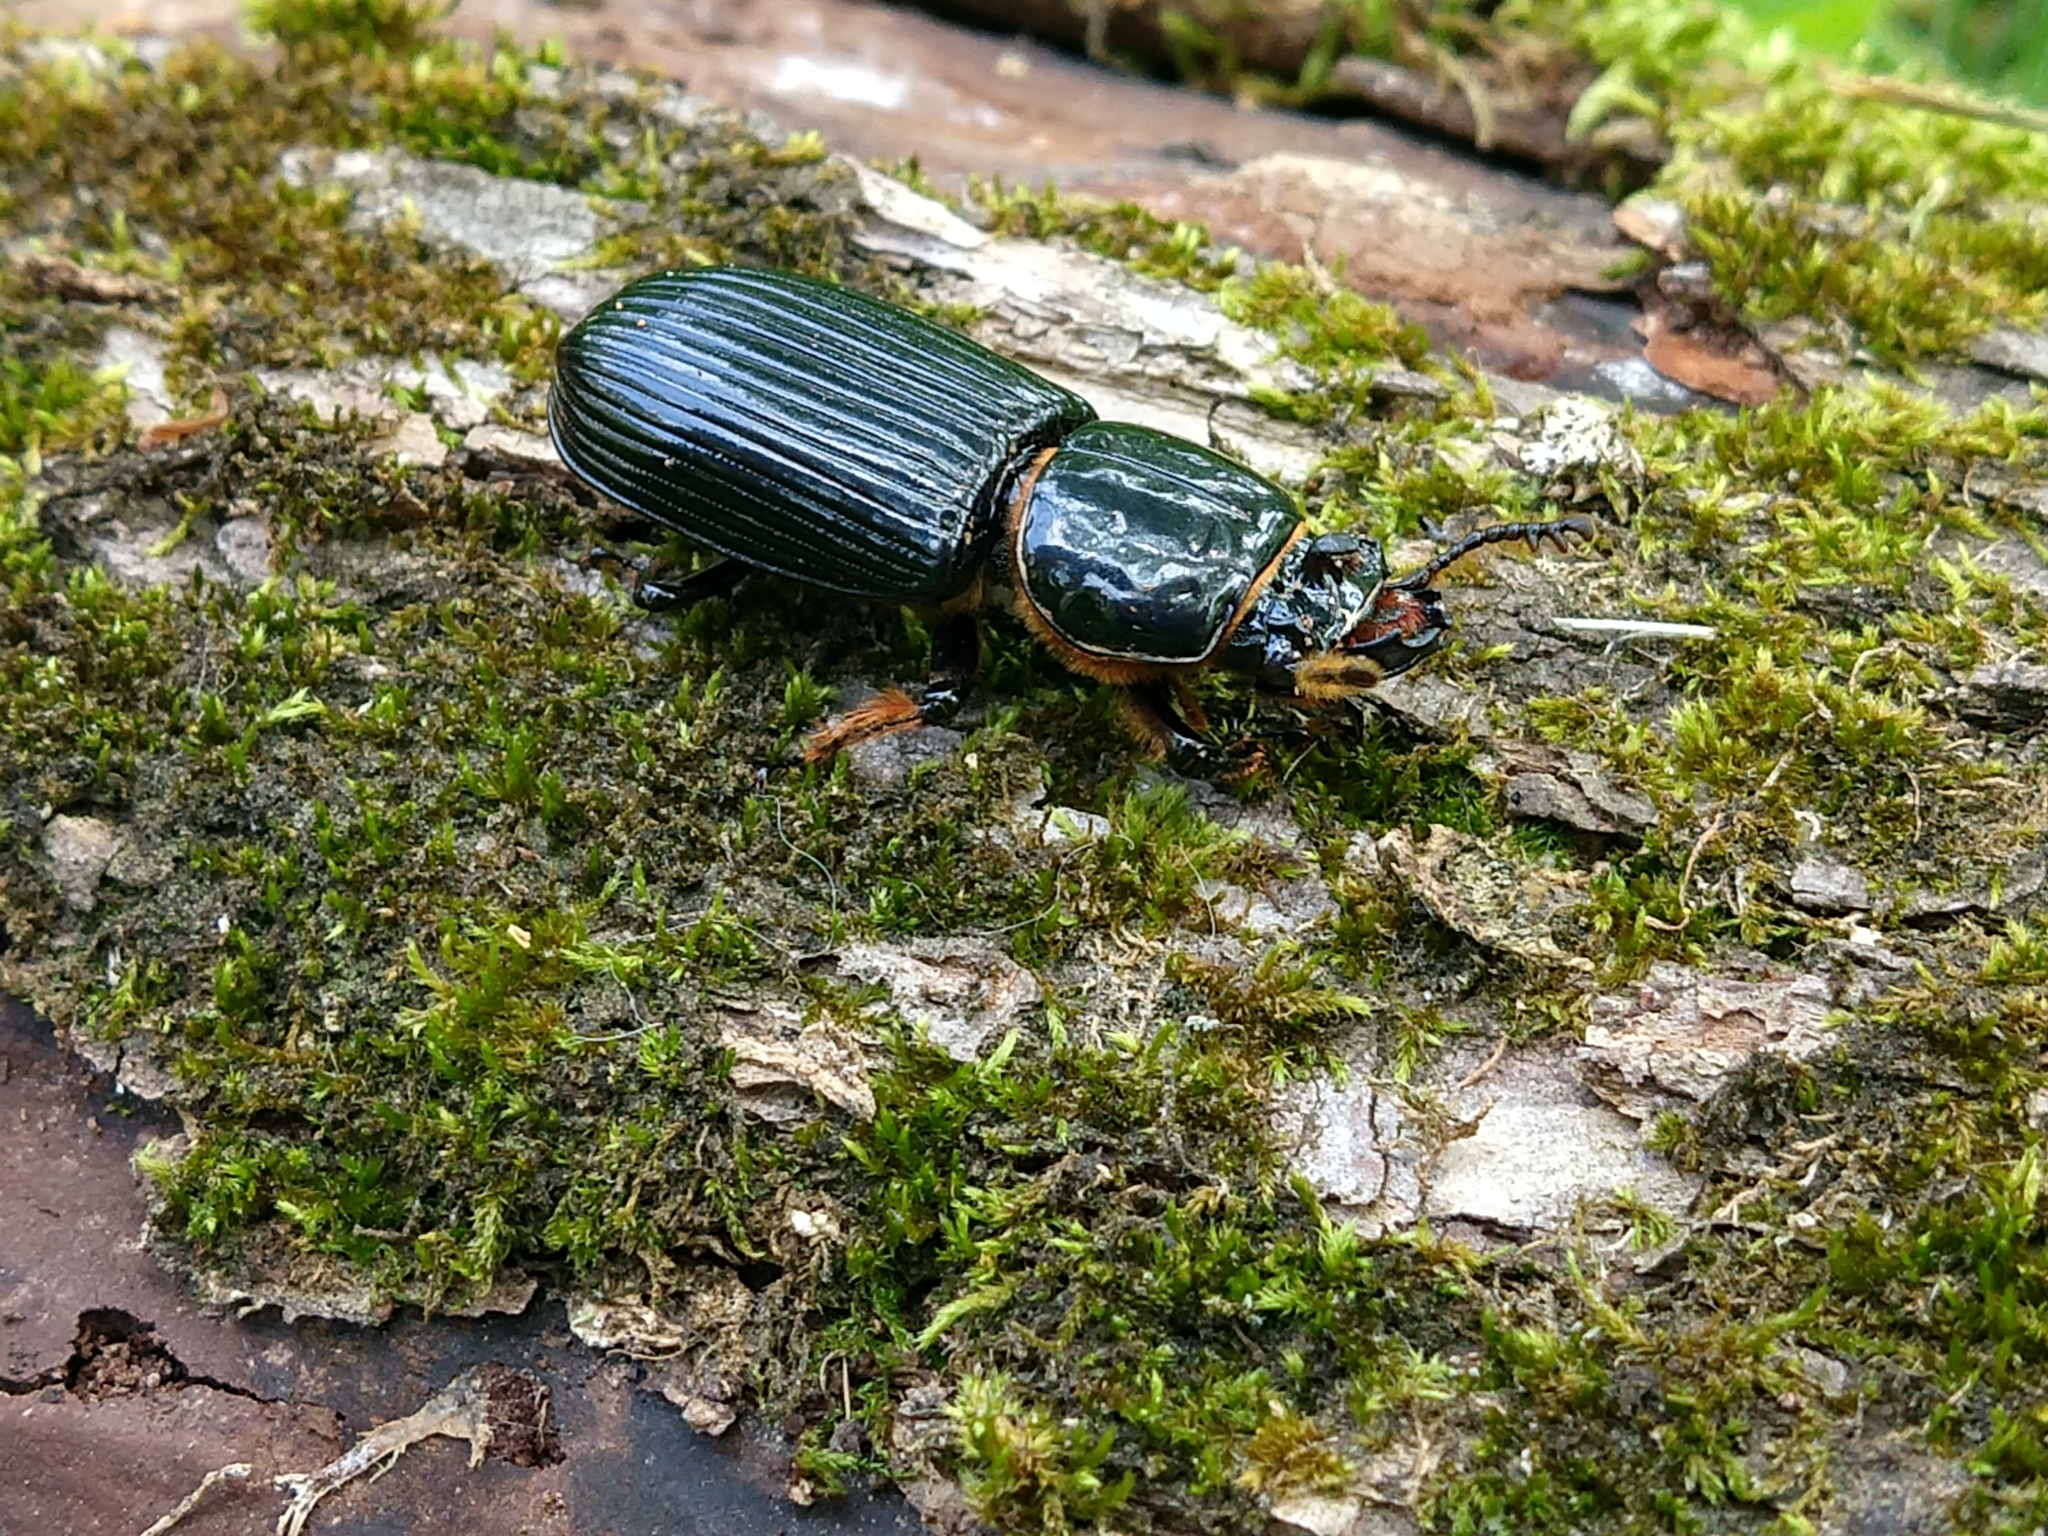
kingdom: Animalia
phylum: Arthropoda
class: Insecta
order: Coleoptera
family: Passalidae
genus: Odontotaenius
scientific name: Odontotaenius disjunctus
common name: Patent leather beetle
